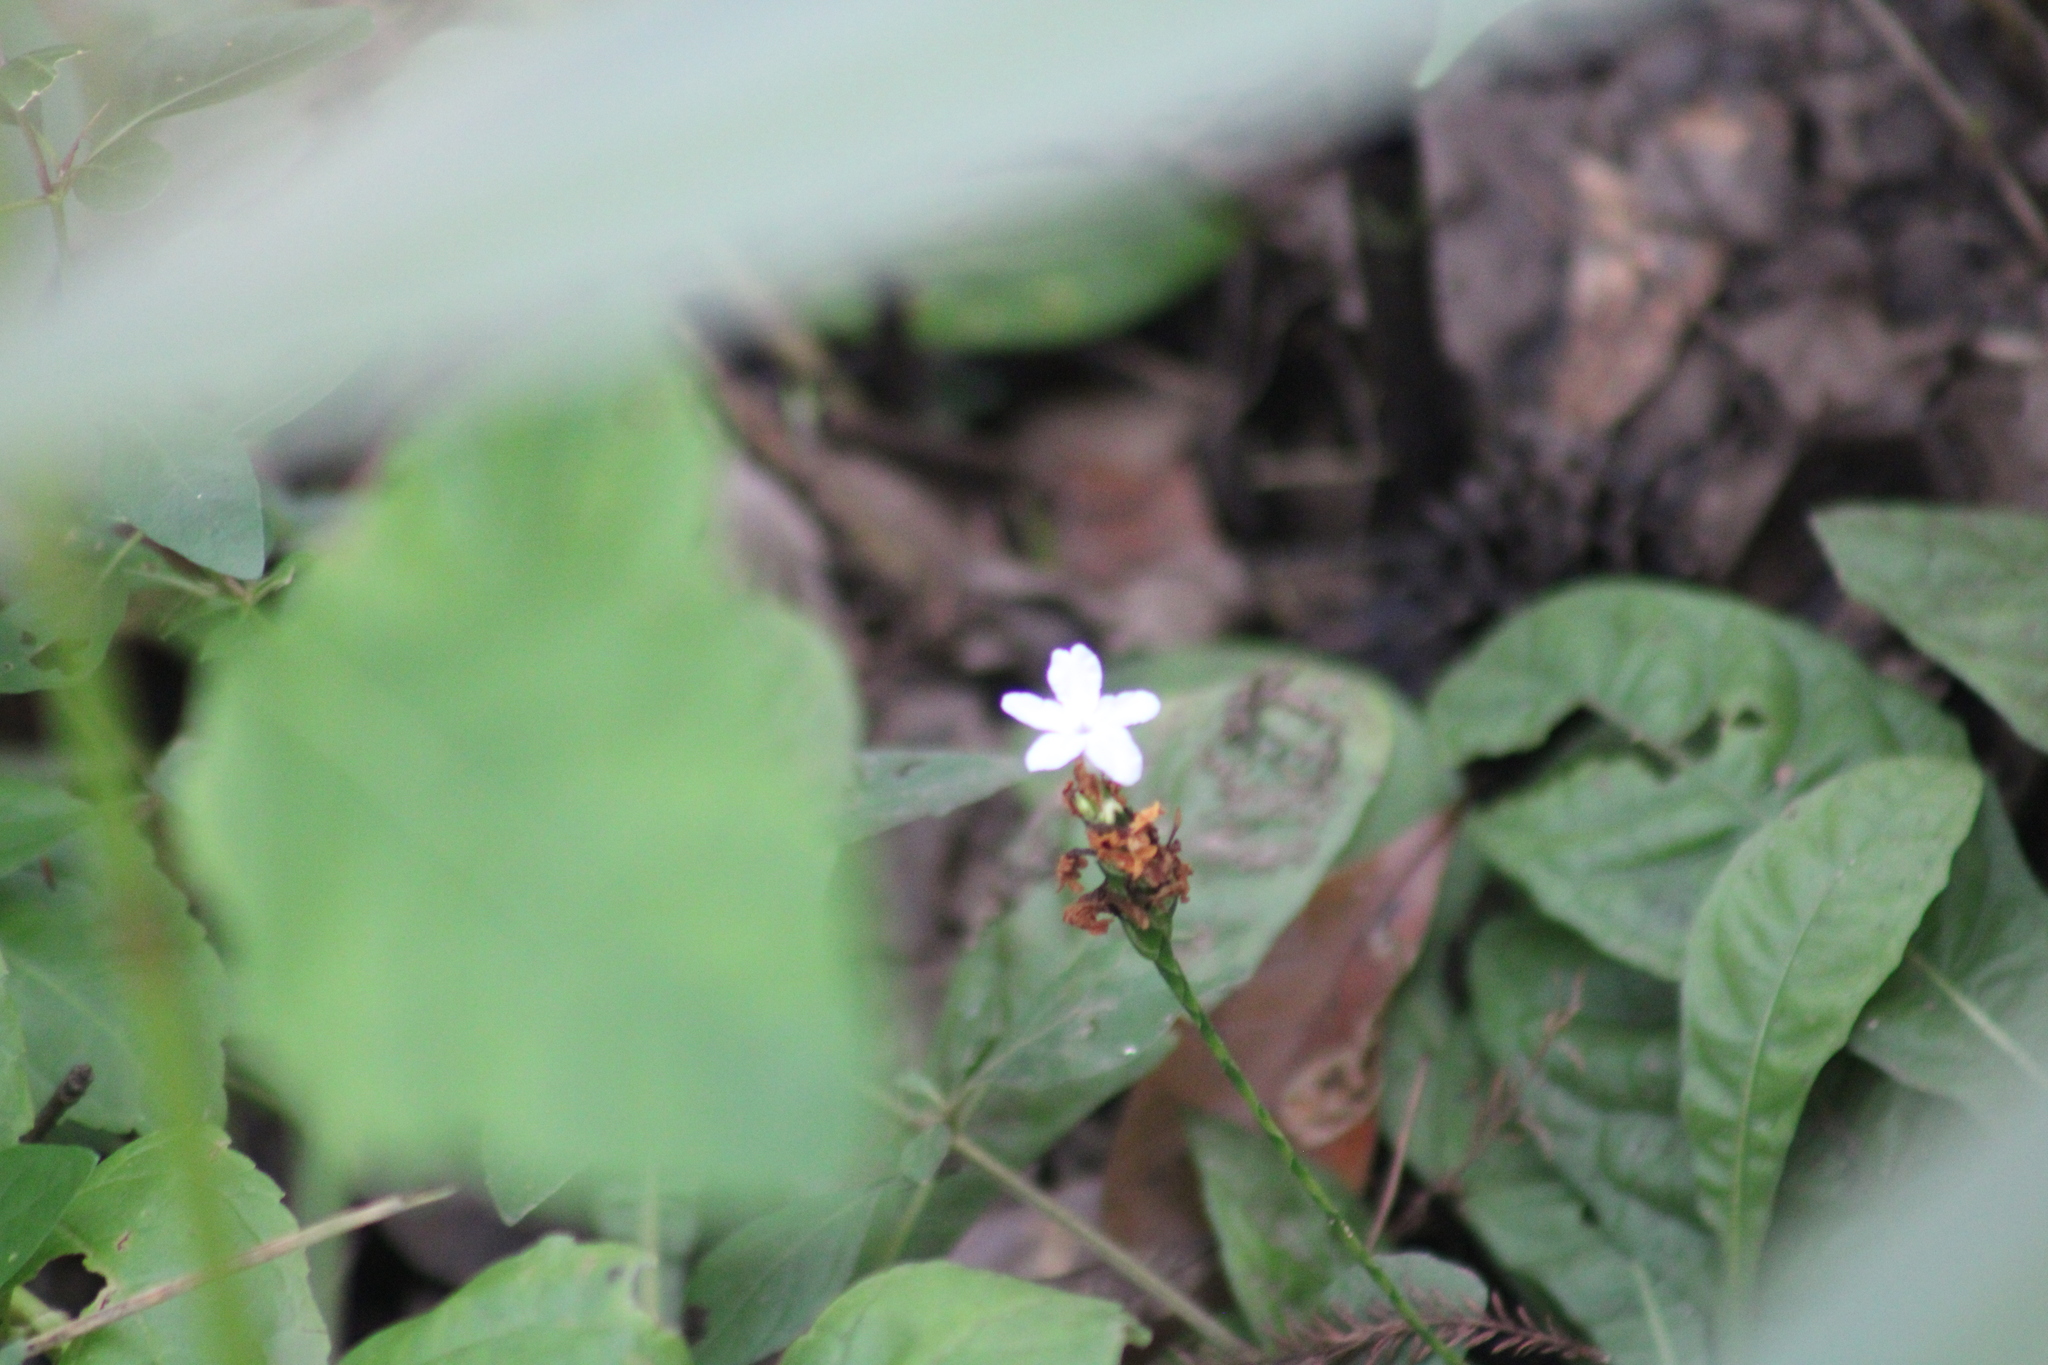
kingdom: Plantae
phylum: Tracheophyta
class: Magnoliopsida
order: Lamiales
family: Acanthaceae
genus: Elytraria
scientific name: Elytraria caroliniensis
